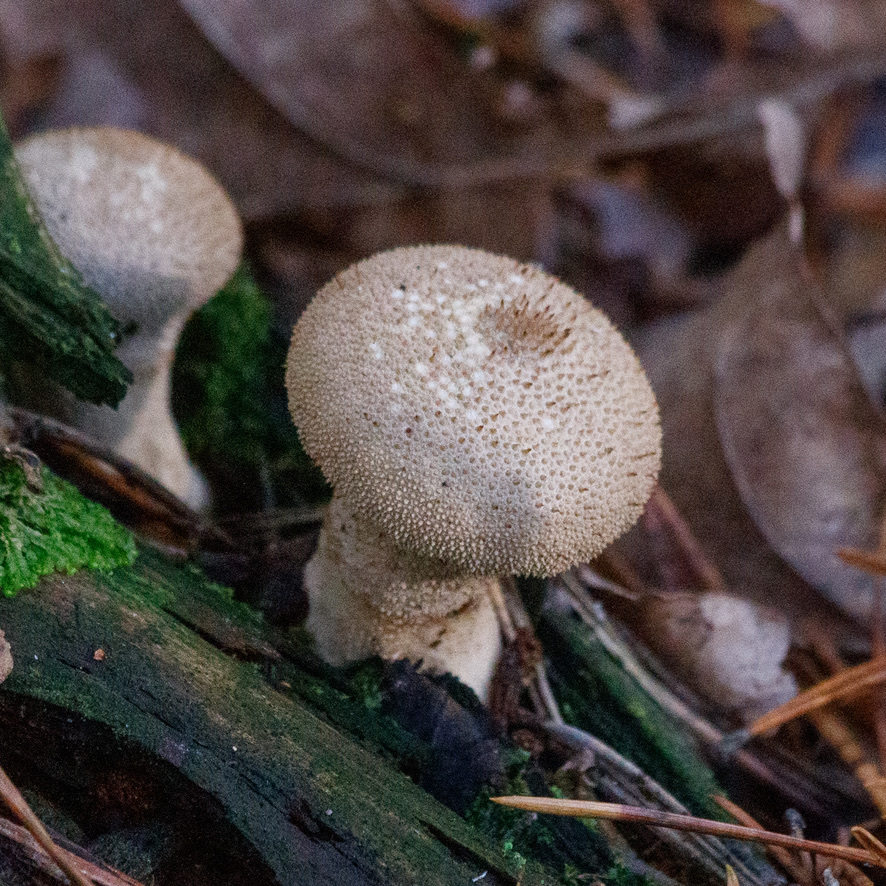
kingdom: Fungi
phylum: Basidiomycota
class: Agaricomycetes
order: Agaricales
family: Lycoperdaceae
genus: Lycoperdon
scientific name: Lycoperdon perlatum
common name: Common puffball
